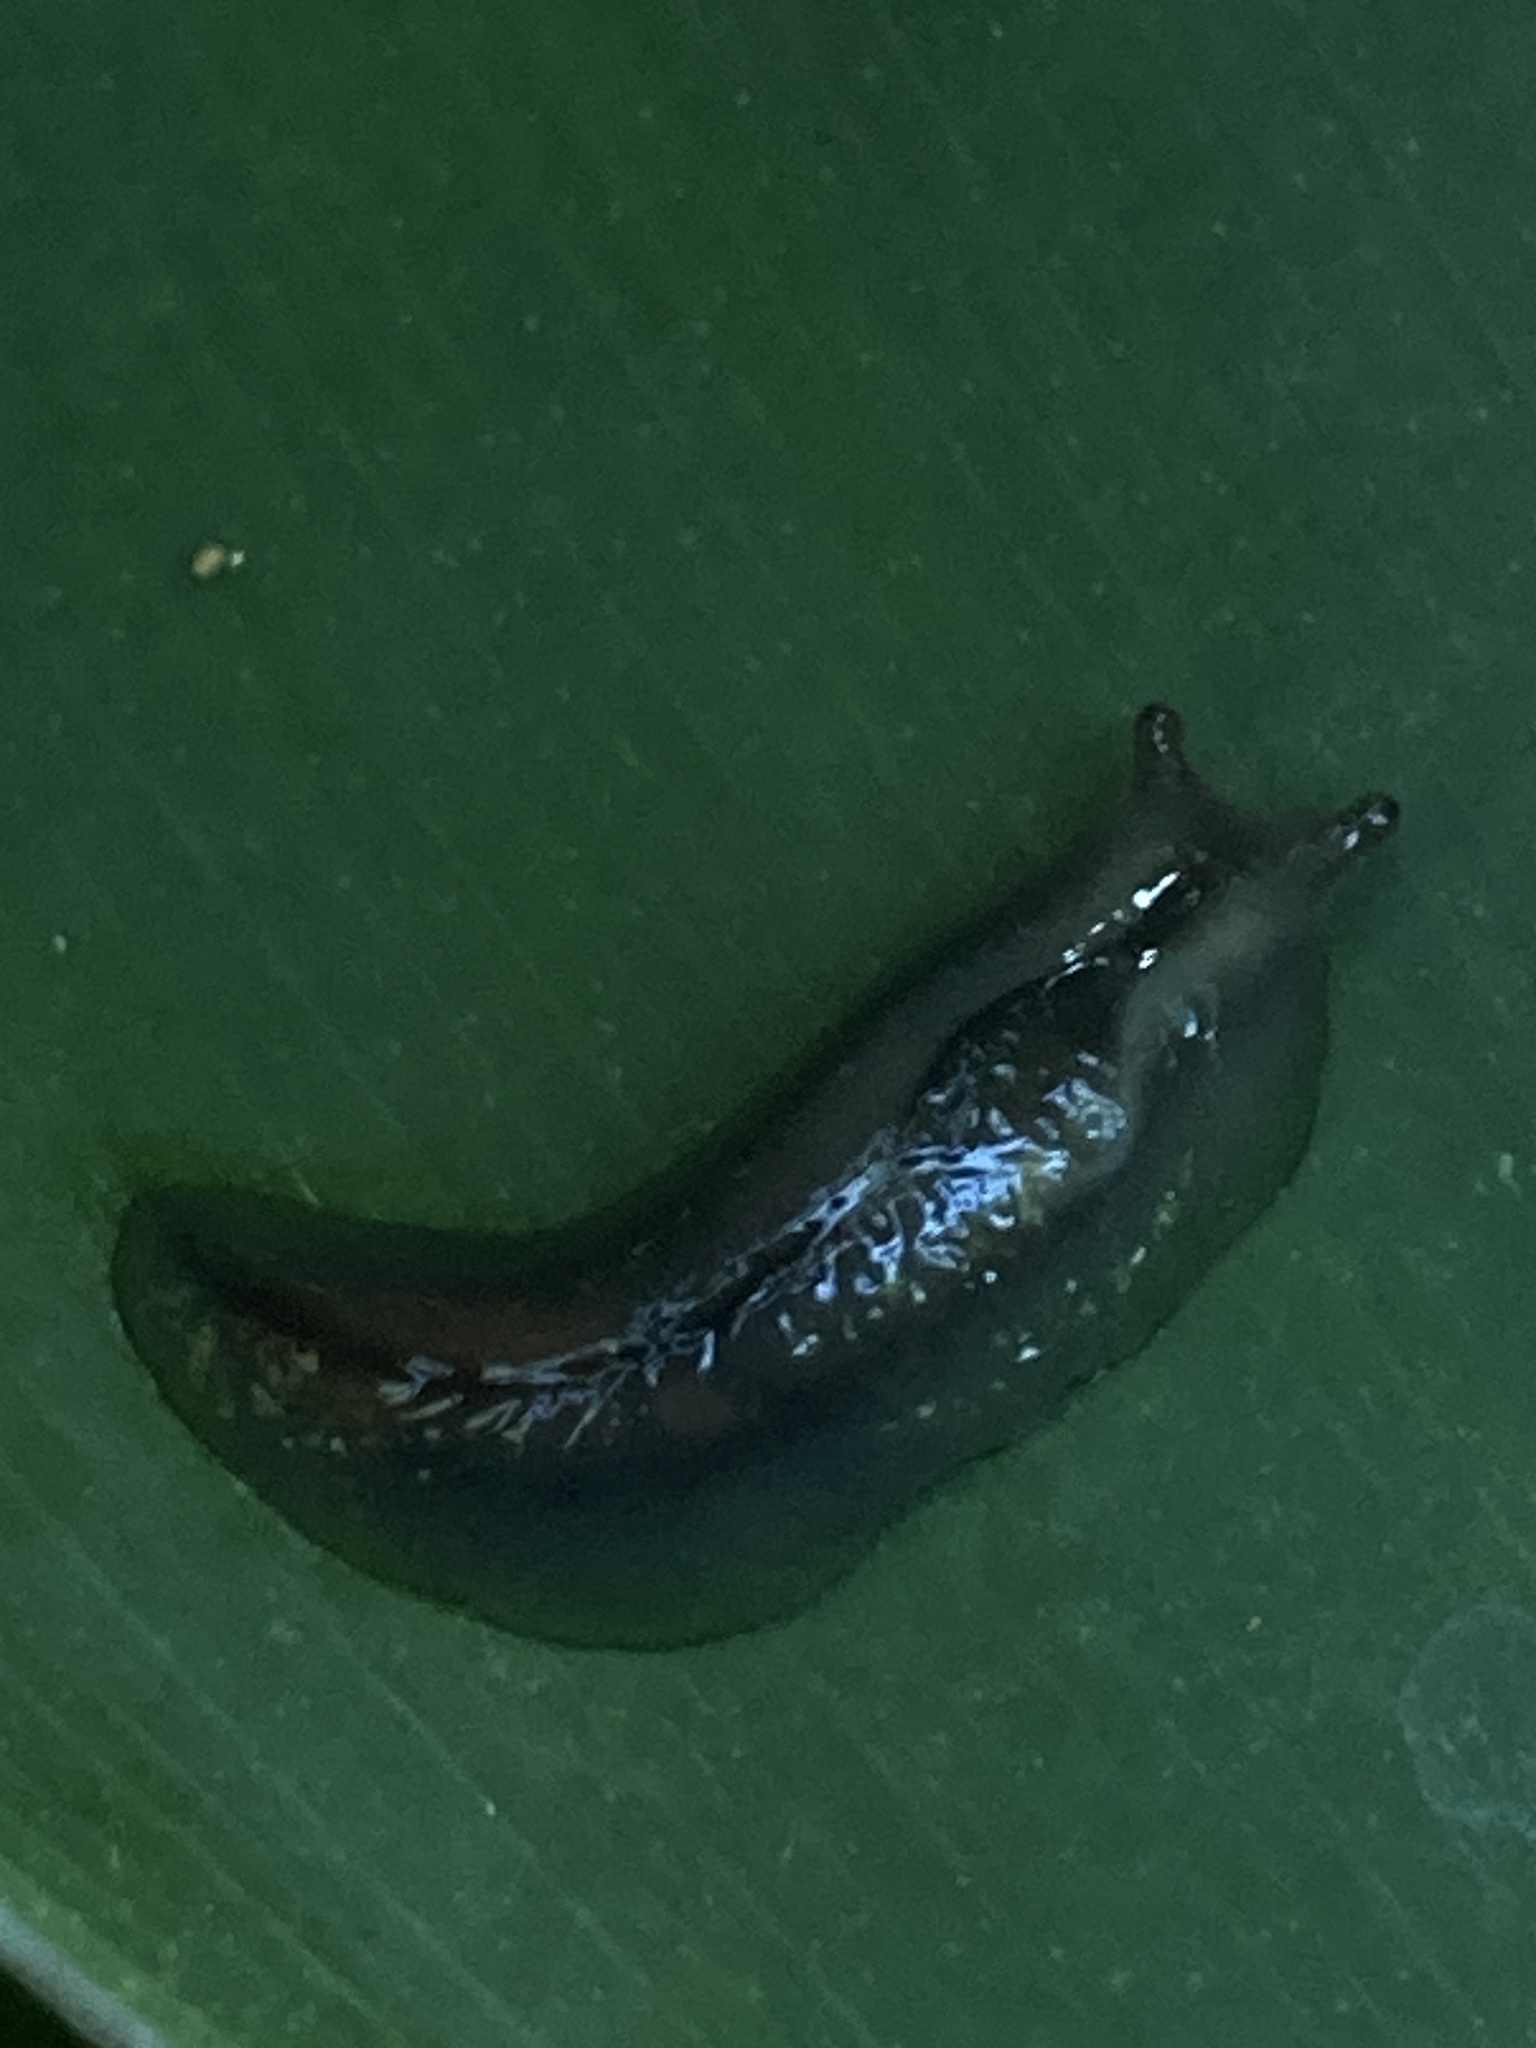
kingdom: Animalia
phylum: Mollusca
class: Gastropoda
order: Stylommatophora
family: Athoracophoridae
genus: Triboniophorus
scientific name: Triboniophorus graeffei
